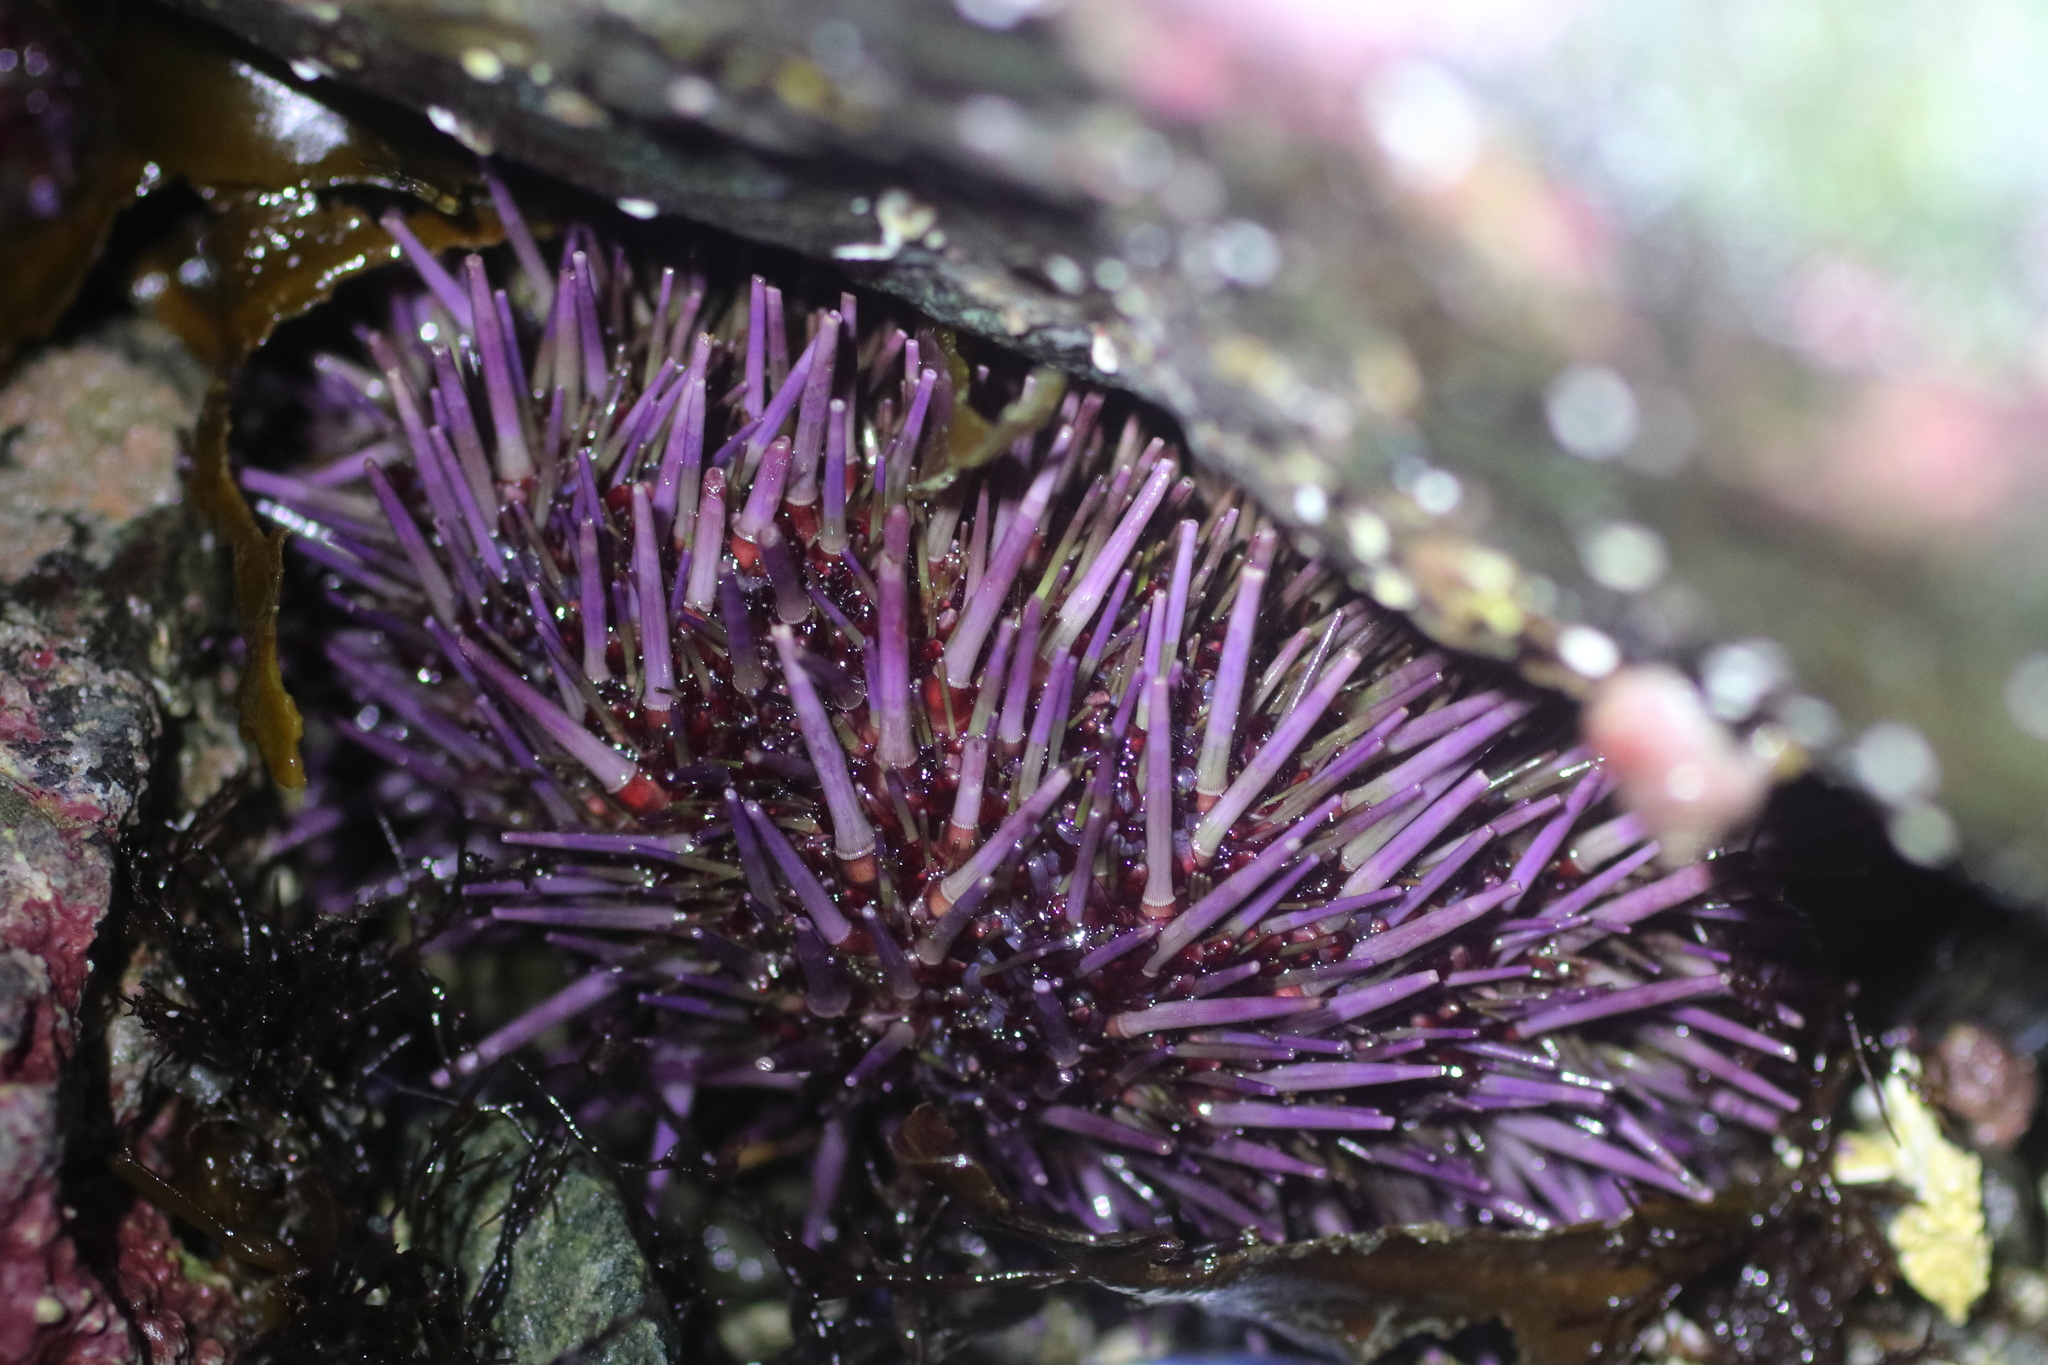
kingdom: Animalia
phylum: Echinodermata
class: Echinoidea
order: Camarodonta
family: Strongylocentrotidae
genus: Strongylocentrotus
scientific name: Strongylocentrotus purpuratus
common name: Purple sea urchin
